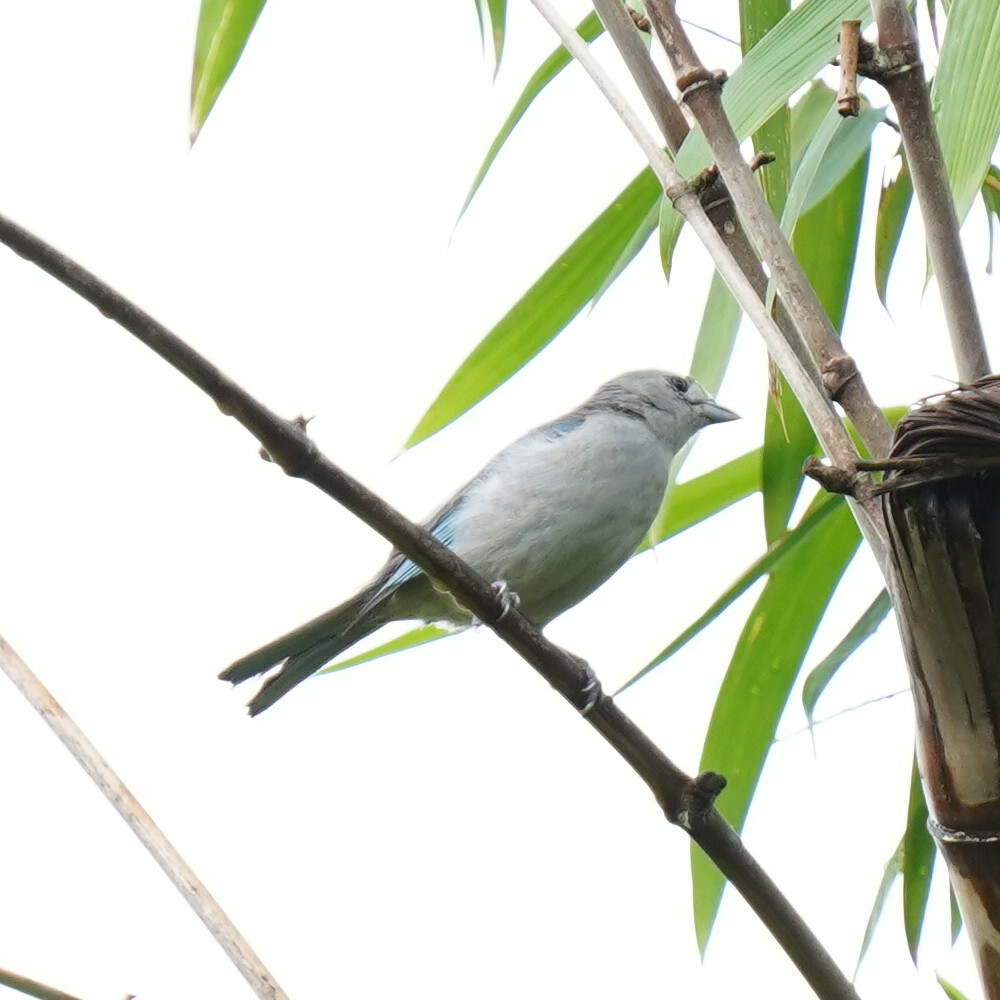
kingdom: Animalia
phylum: Chordata
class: Aves
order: Passeriformes
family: Thraupidae
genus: Thraupis
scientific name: Thraupis sayaca
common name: Sayaca tanager
